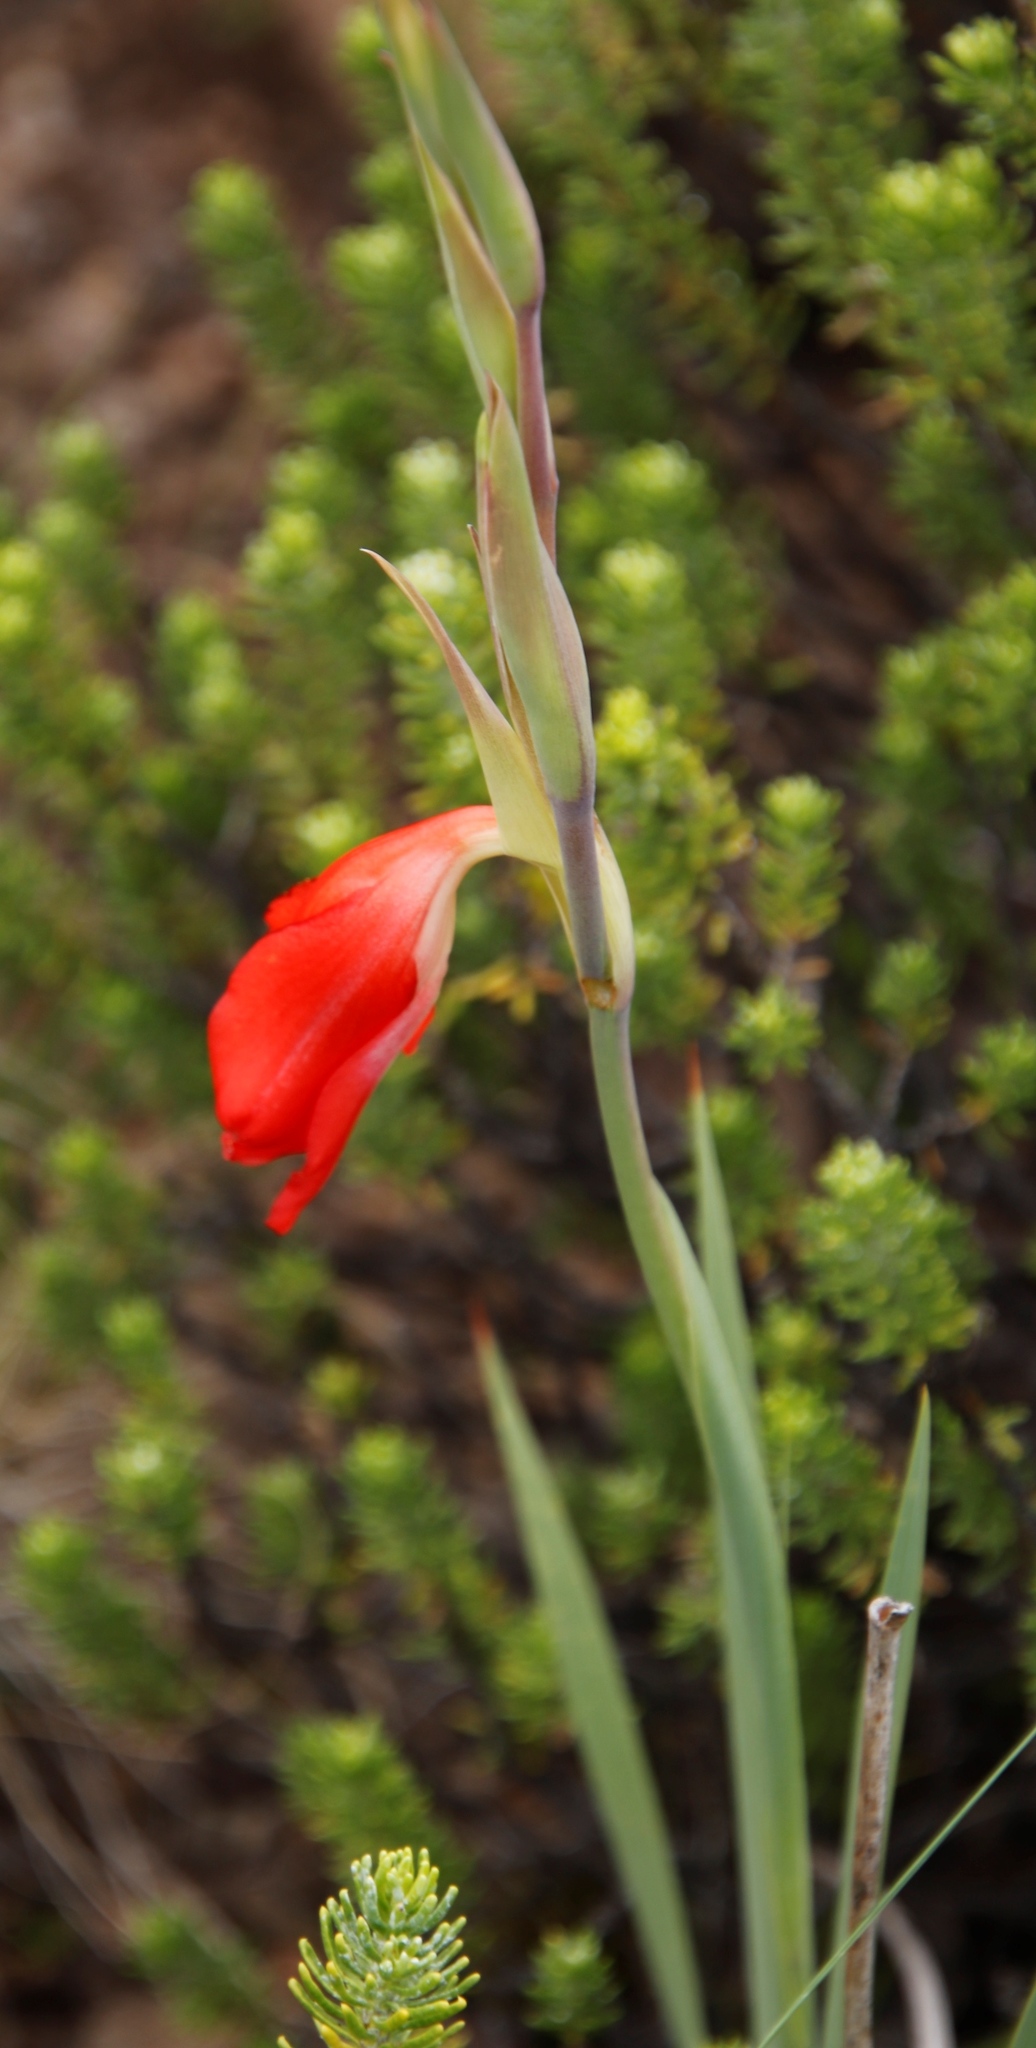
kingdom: Plantae
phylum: Tracheophyta
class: Liliopsida
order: Asparagales
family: Iridaceae
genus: Gladiolus
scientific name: Gladiolus saundersii
